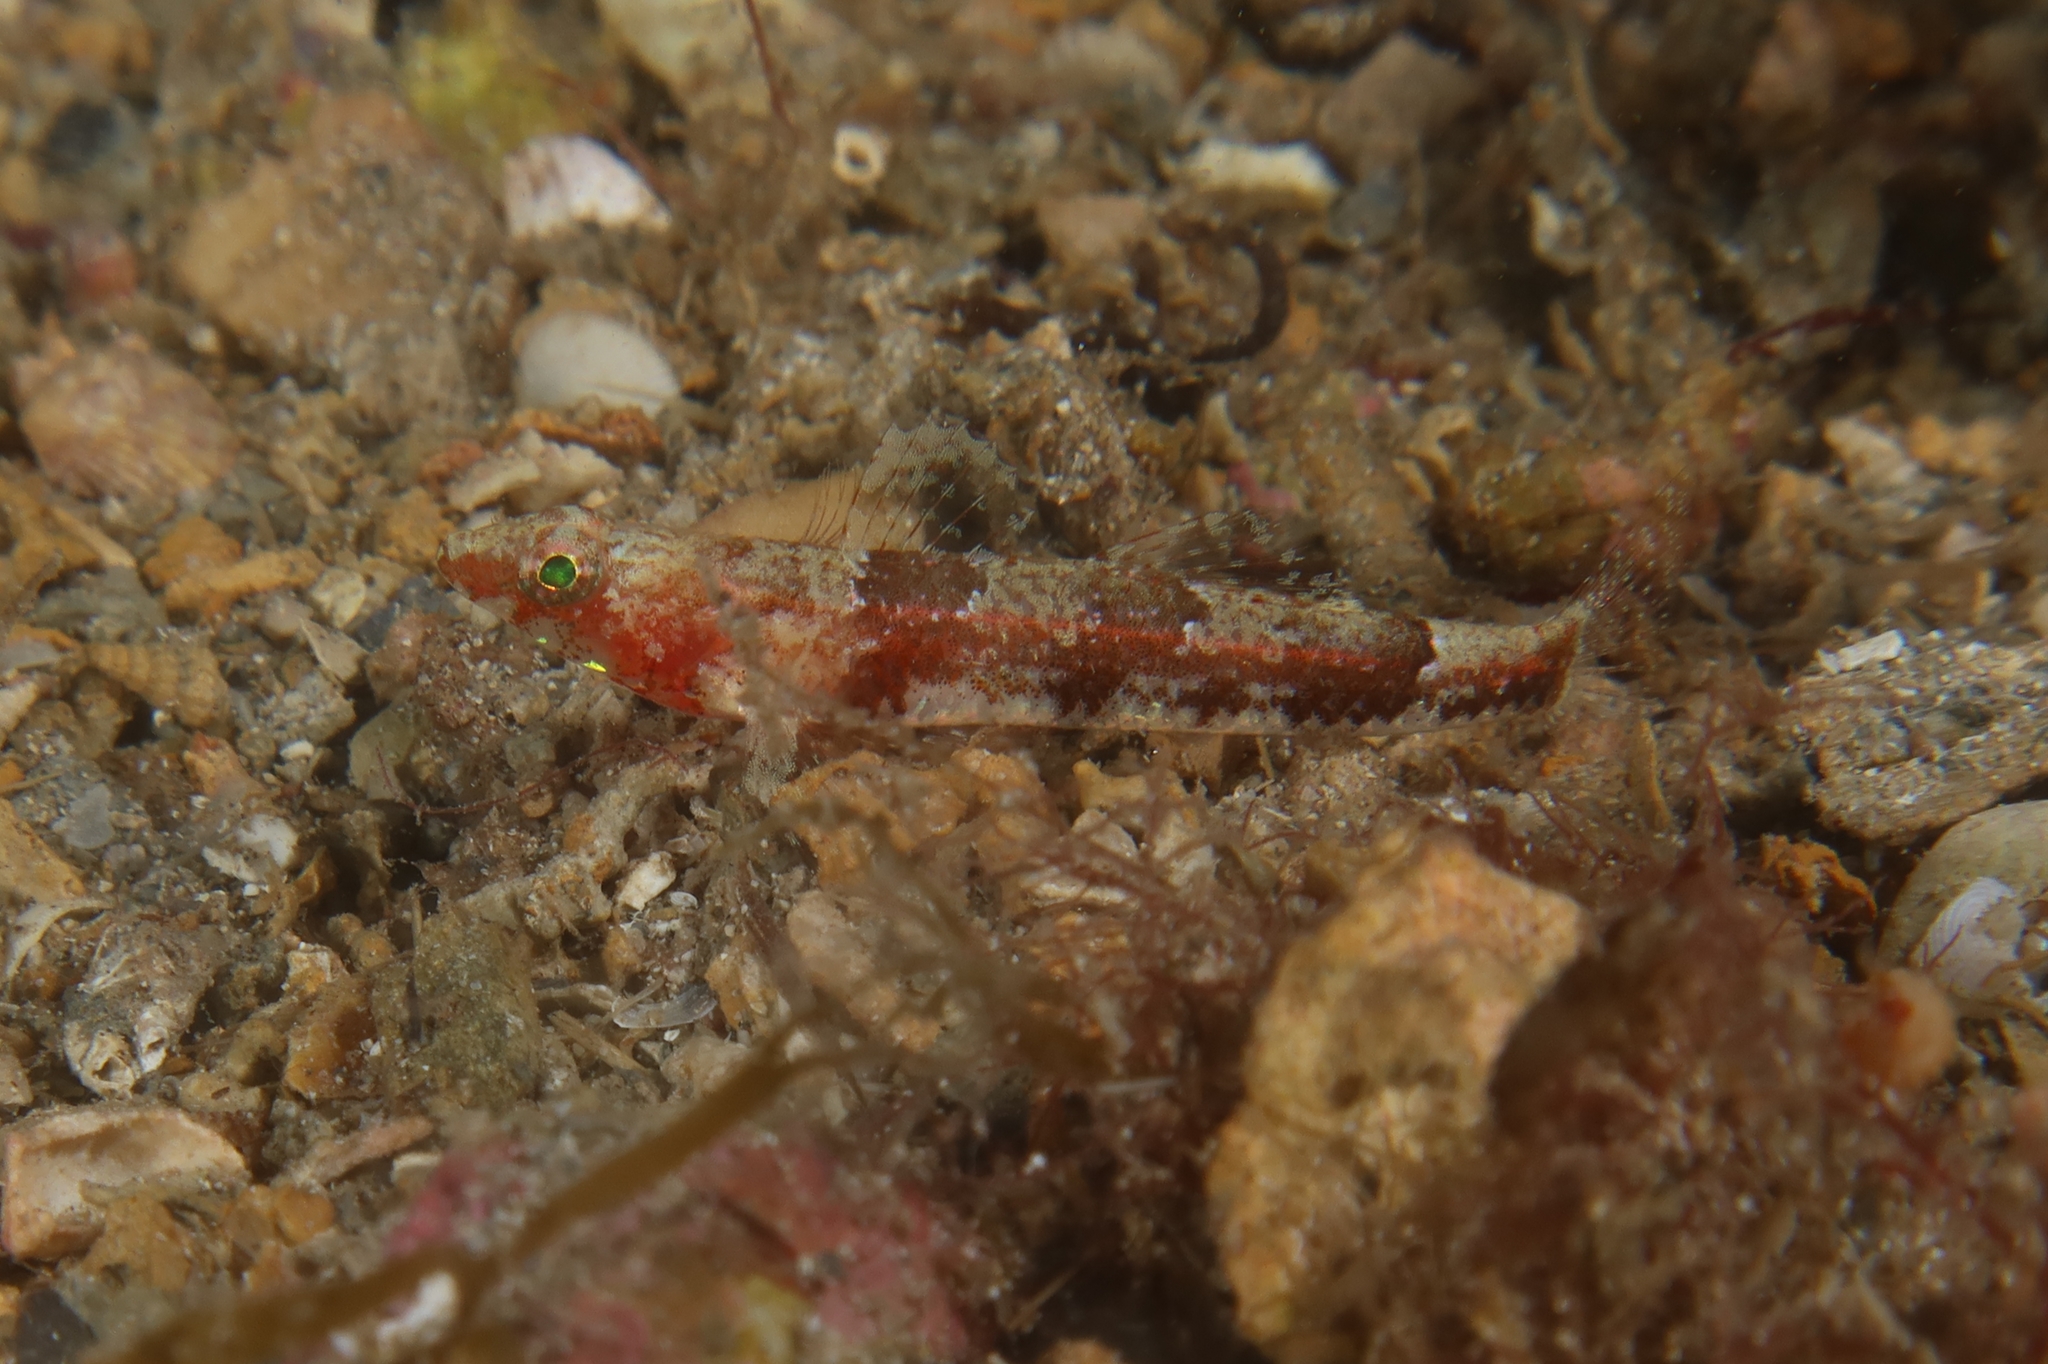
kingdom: Animalia
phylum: Chordata
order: Perciformes
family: Gobiidae
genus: Speleogobius
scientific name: Speleogobius llorisi
